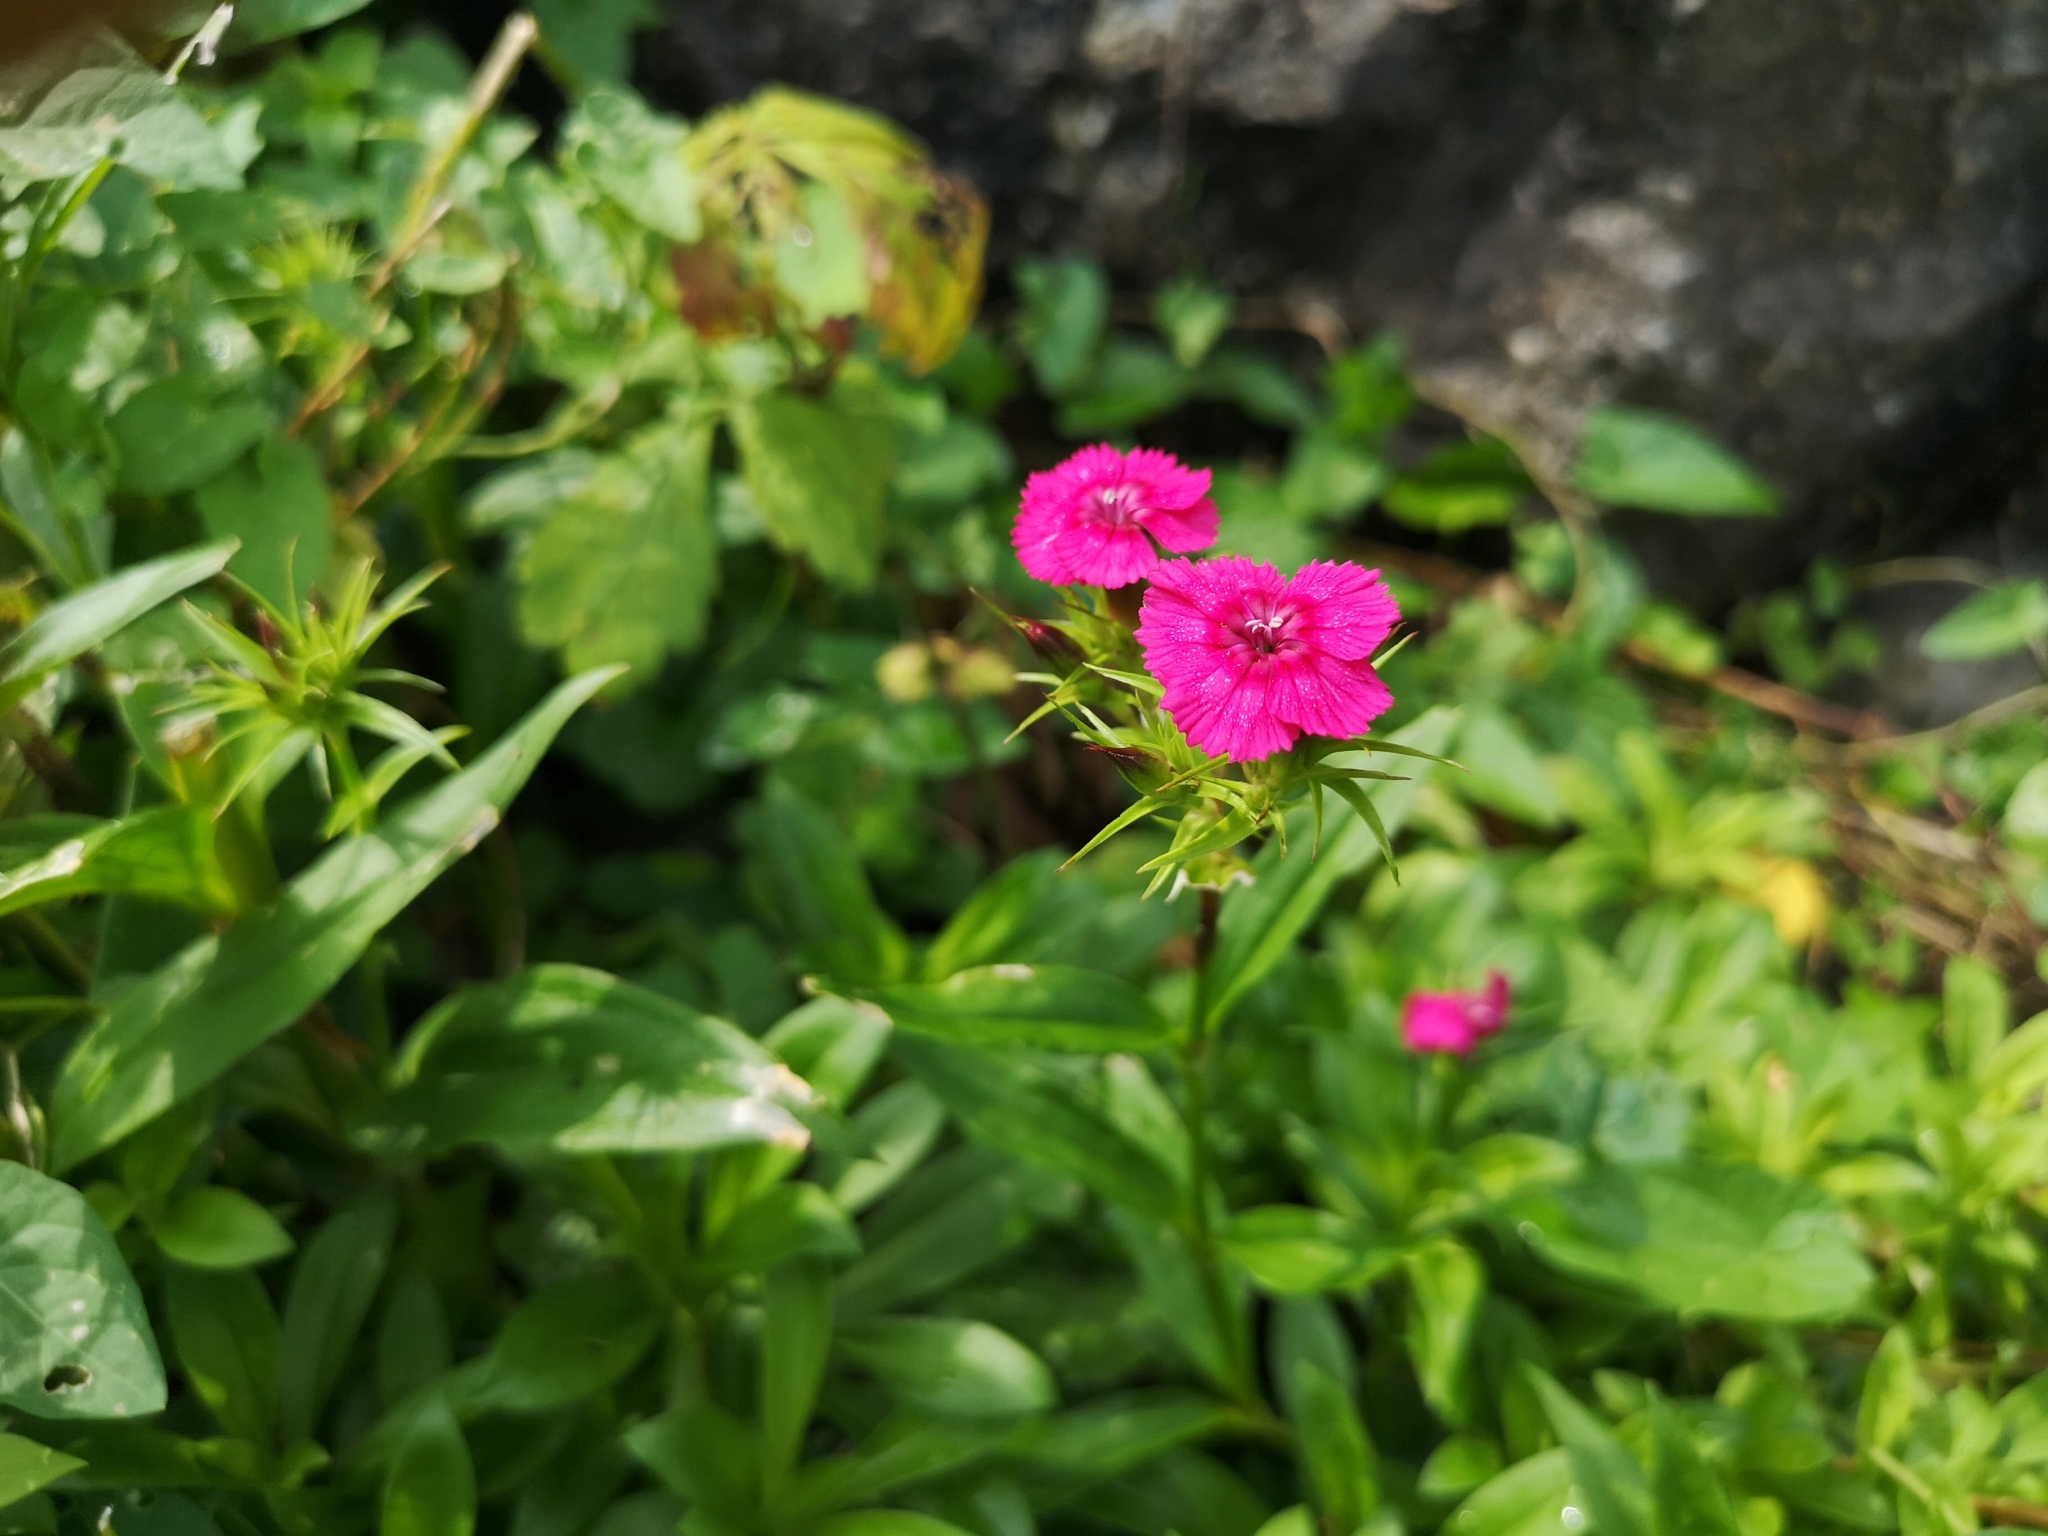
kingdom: Plantae
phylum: Tracheophyta
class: Magnoliopsida
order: Caryophyllales
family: Caryophyllaceae
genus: Dianthus
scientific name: Dianthus barbatus
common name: Sweet-william
